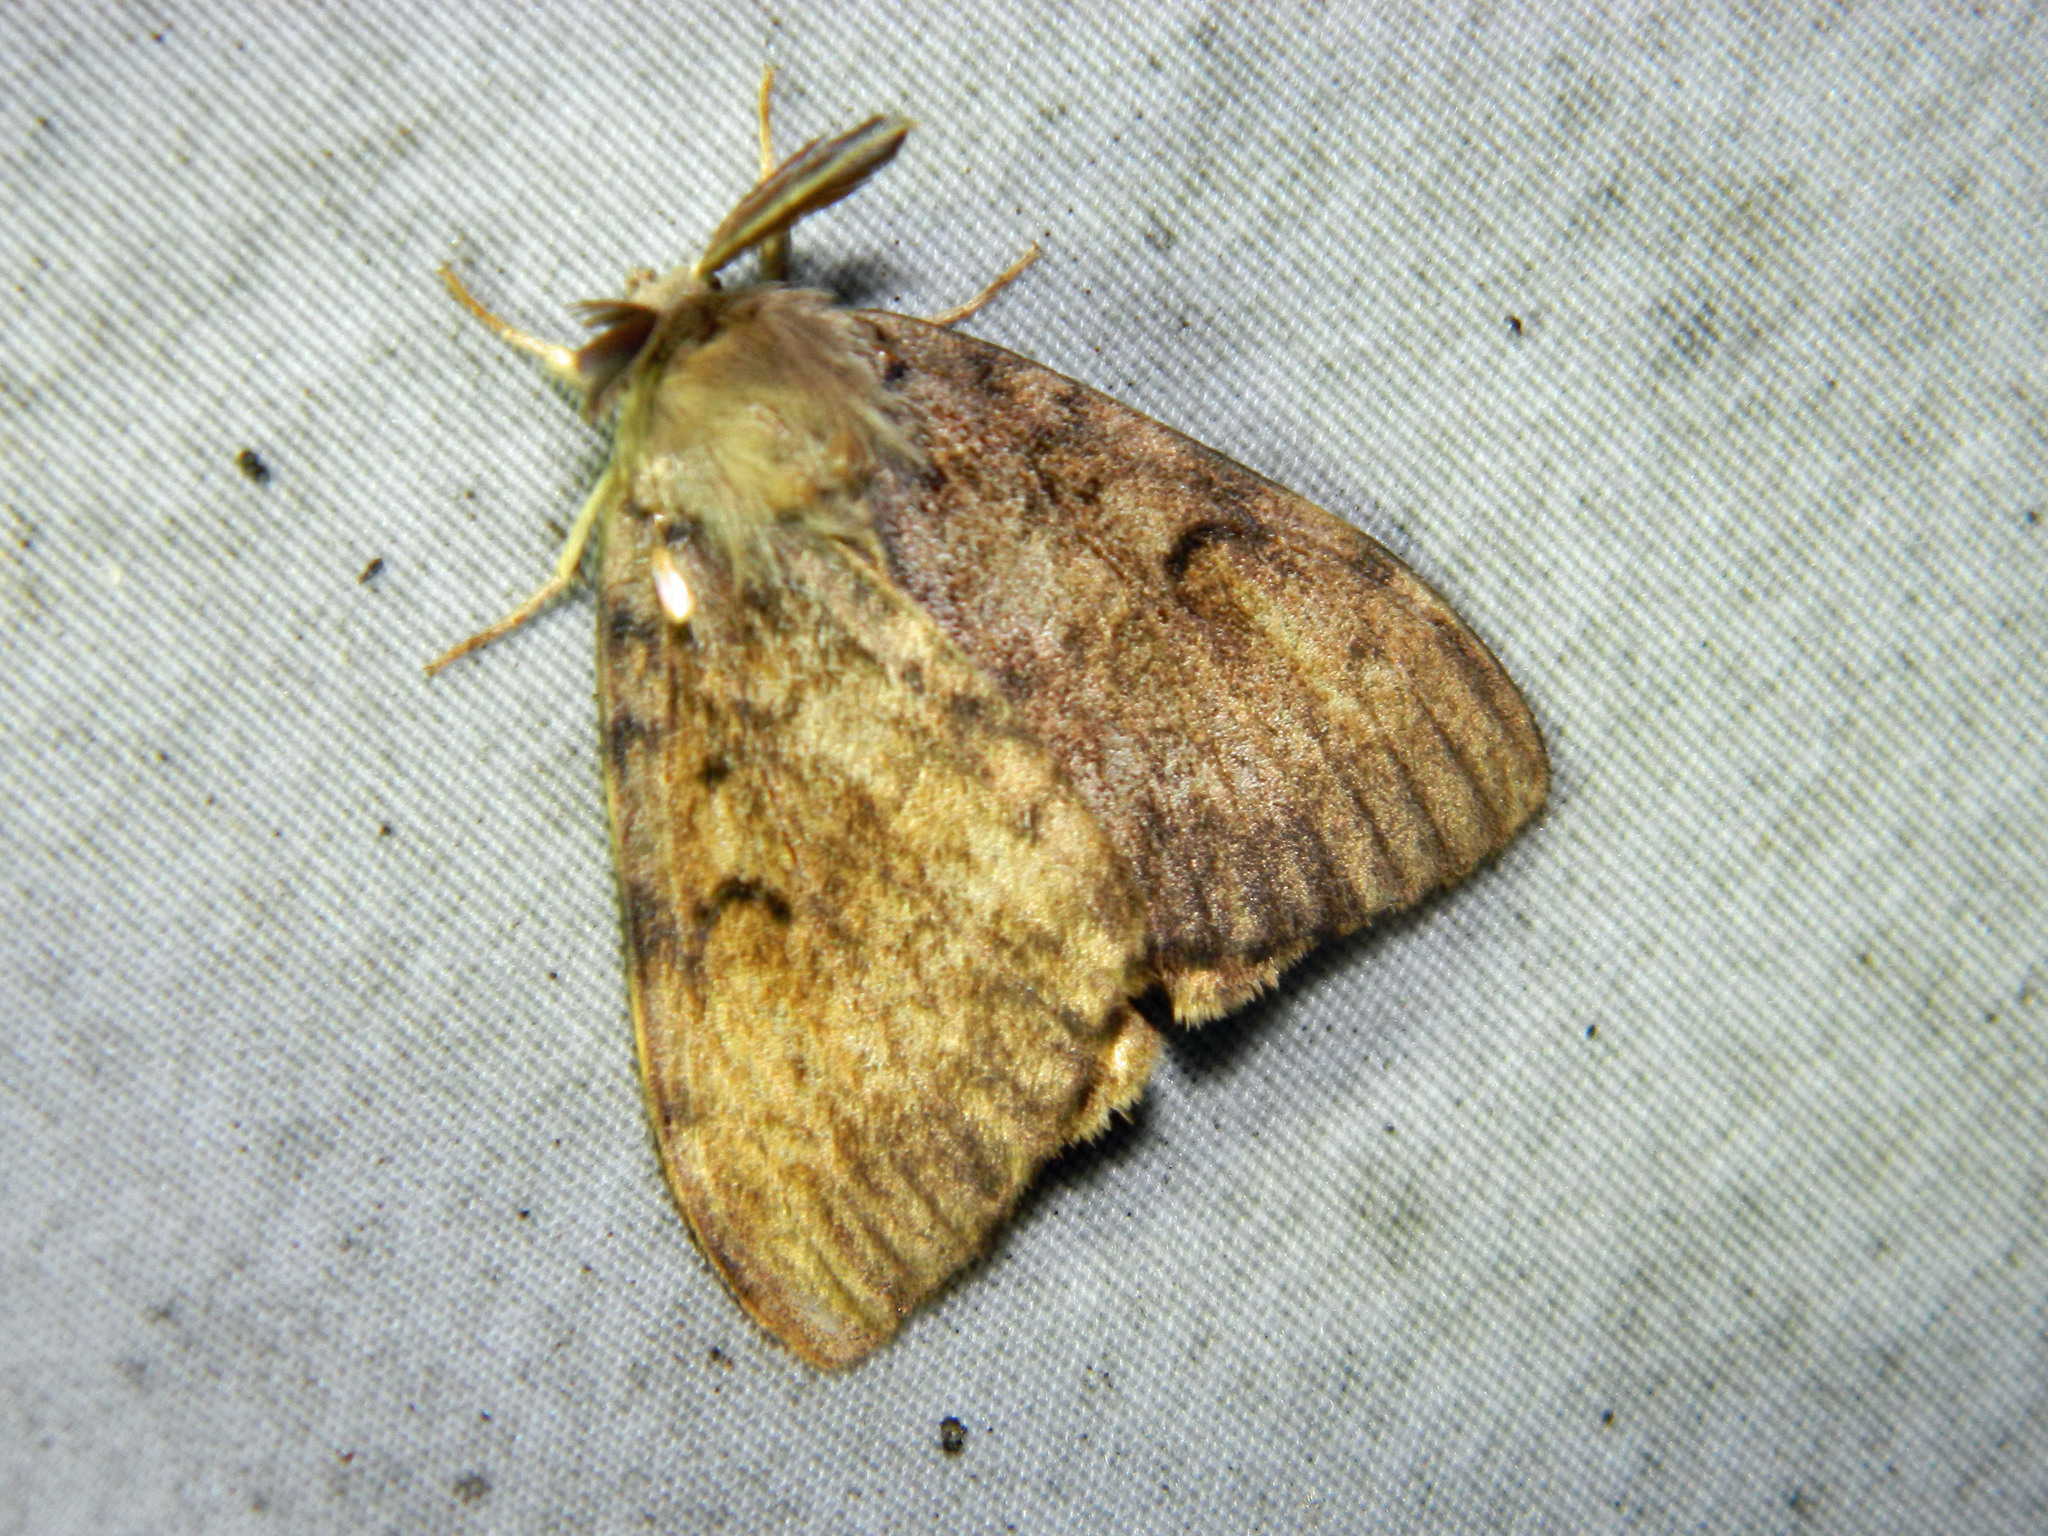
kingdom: Animalia
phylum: Arthropoda
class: Insecta
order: Lepidoptera
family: Erebidae
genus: Lymantria
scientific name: Lymantria dispar
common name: Gypsy moth
